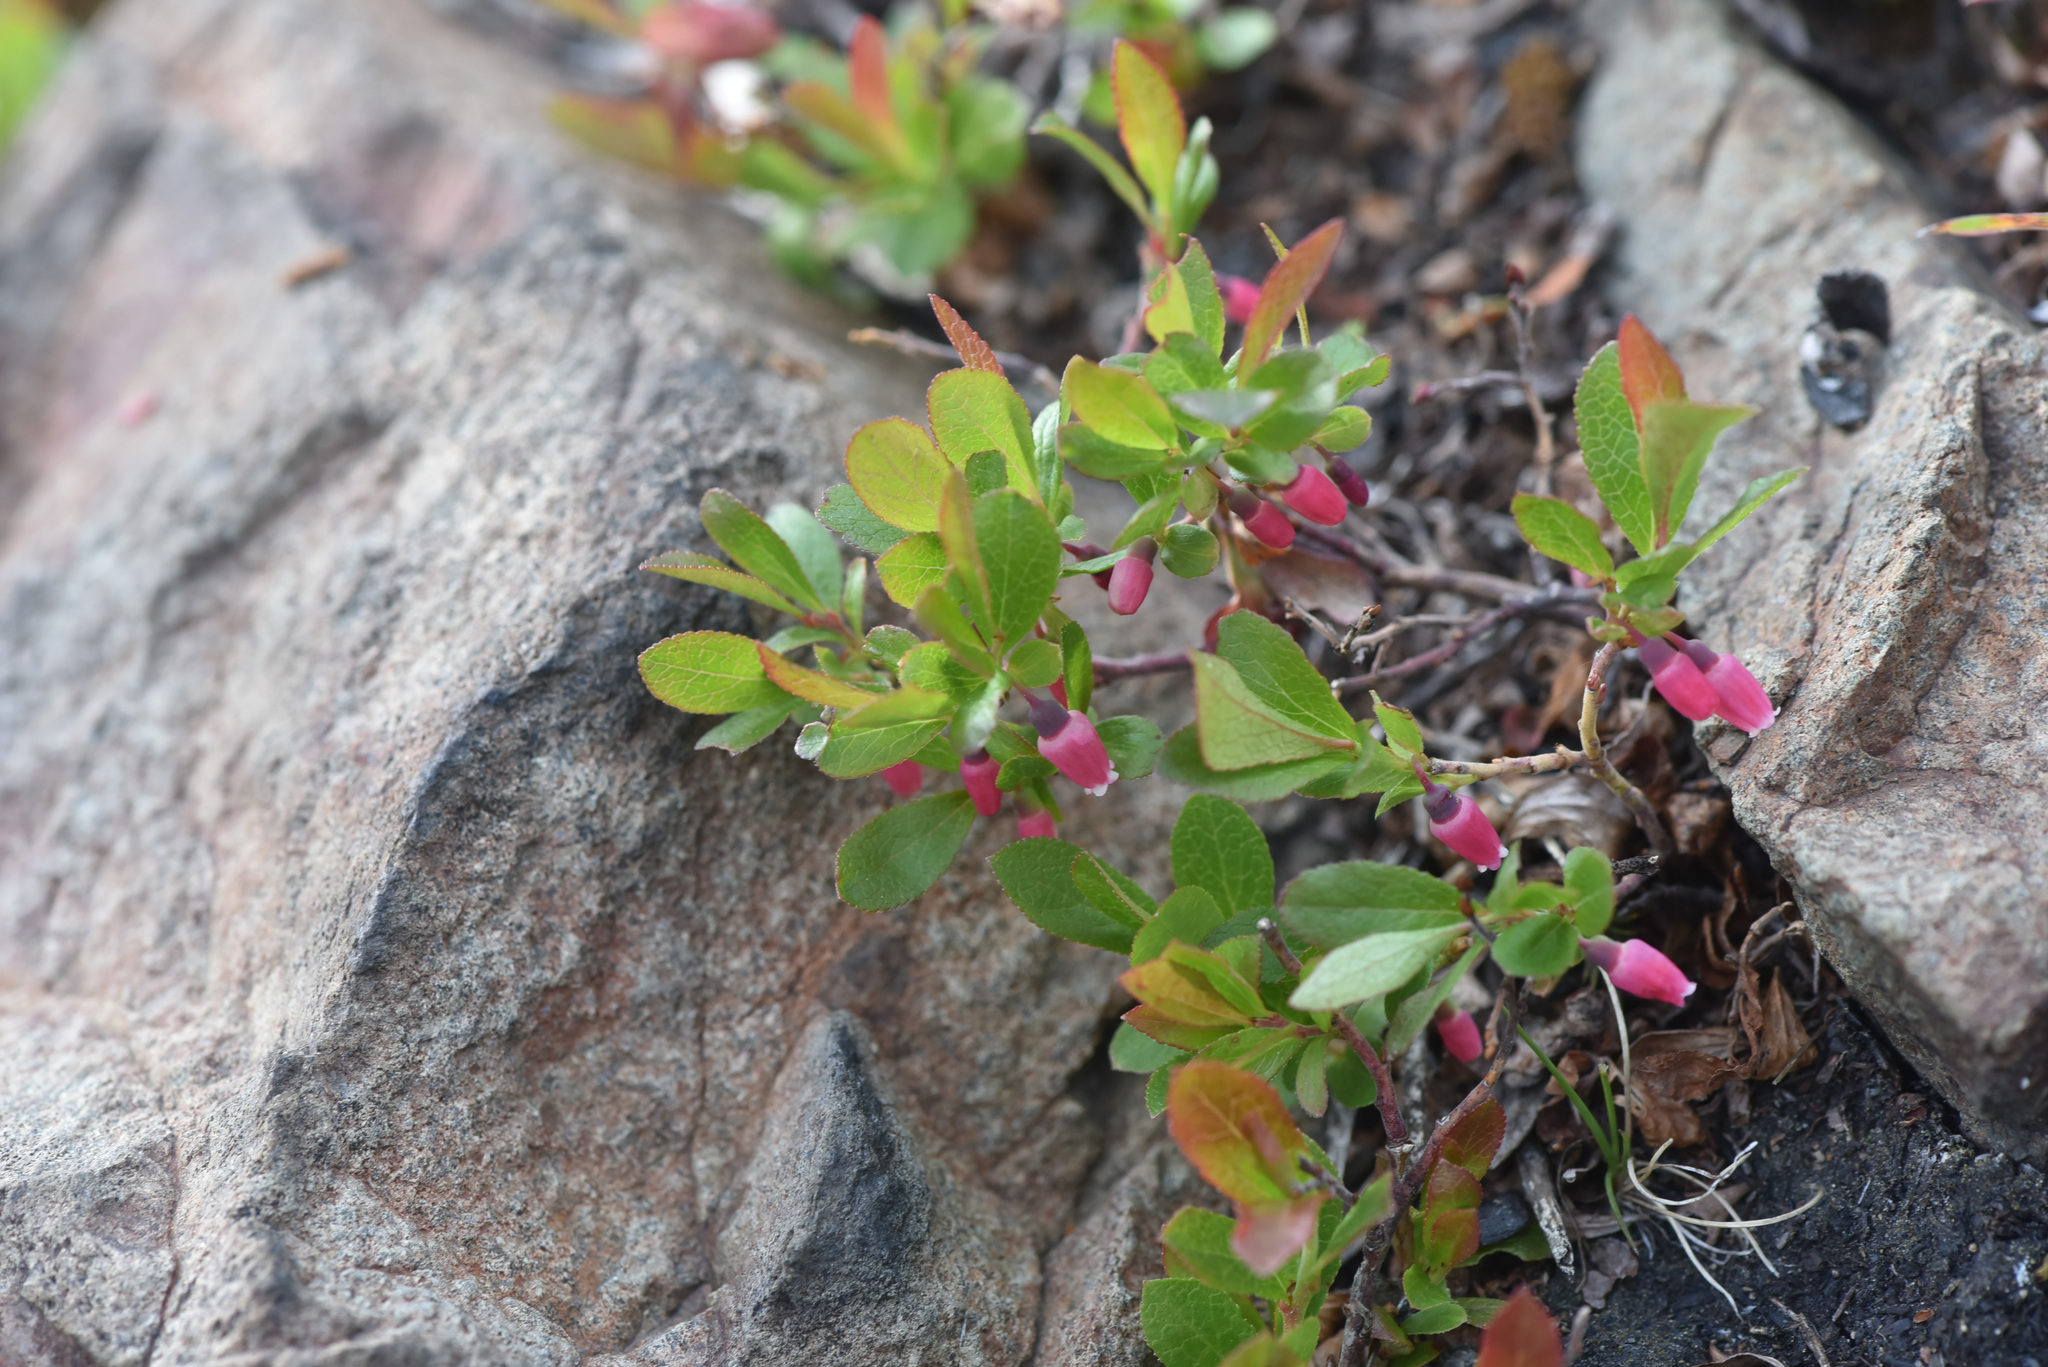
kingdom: Plantae
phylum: Tracheophyta
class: Magnoliopsida
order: Ericales
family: Ericaceae
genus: Vaccinium
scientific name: Vaccinium cespitosum
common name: Dwarf bilberry
